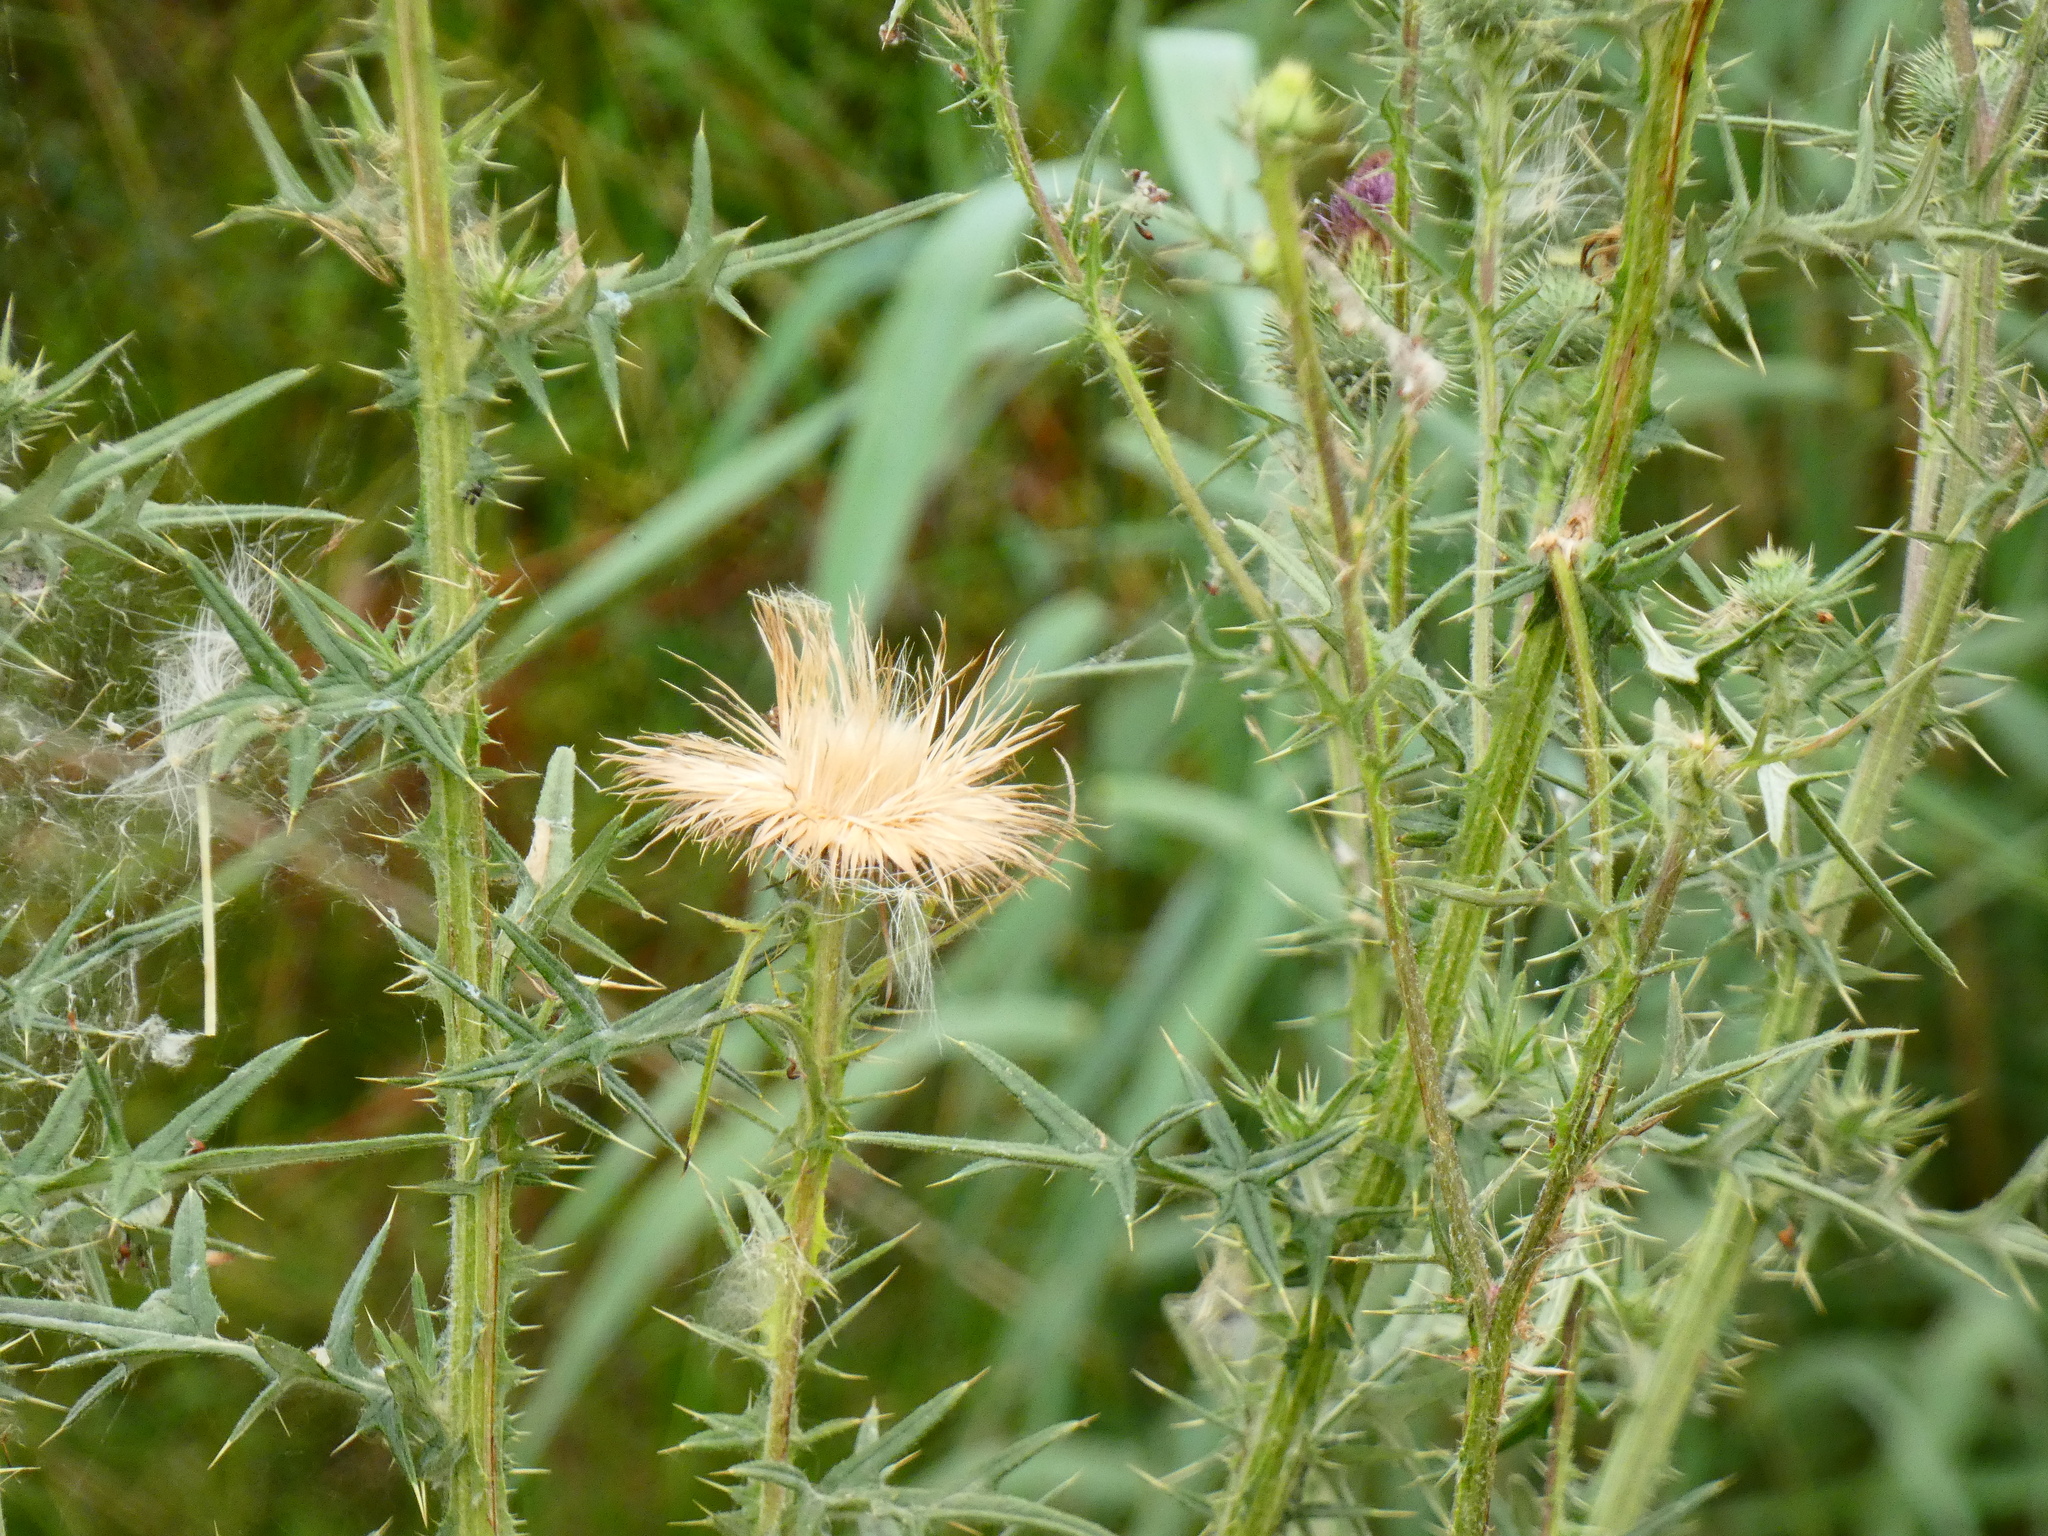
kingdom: Plantae
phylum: Tracheophyta
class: Magnoliopsida
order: Asterales
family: Asteraceae
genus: Cirsium
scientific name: Cirsium vulgare
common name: Bull thistle
